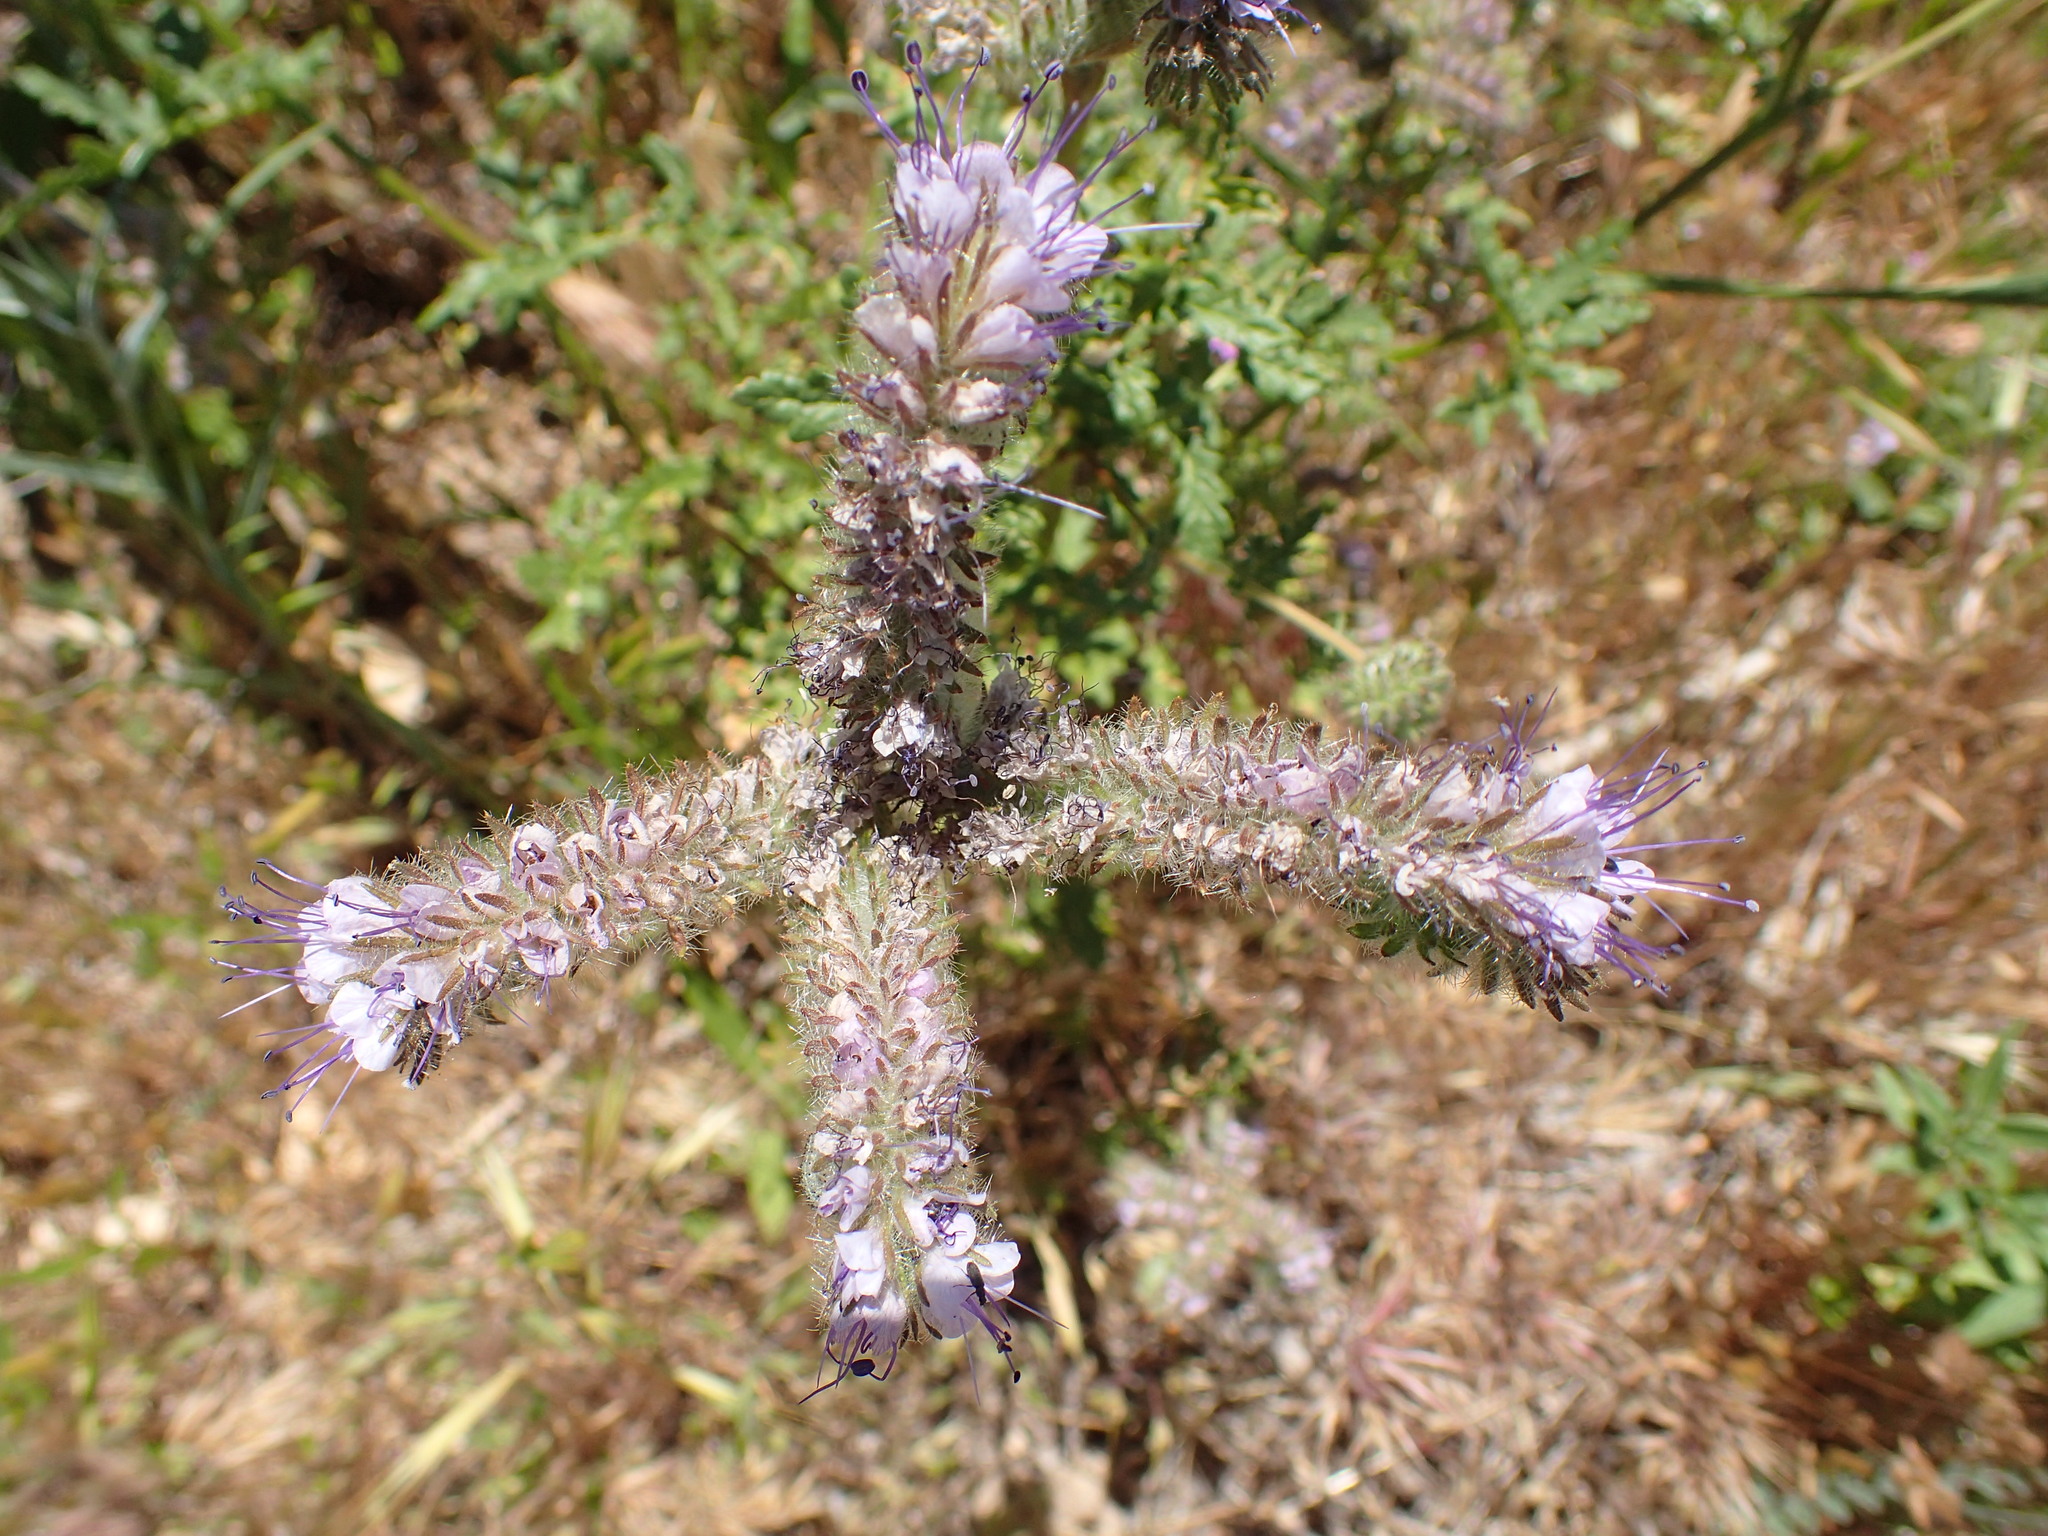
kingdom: Plantae
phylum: Tracheophyta
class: Magnoliopsida
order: Boraginales
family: Hydrophyllaceae
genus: Phacelia
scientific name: Phacelia tanacetifolia
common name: Phacelia
